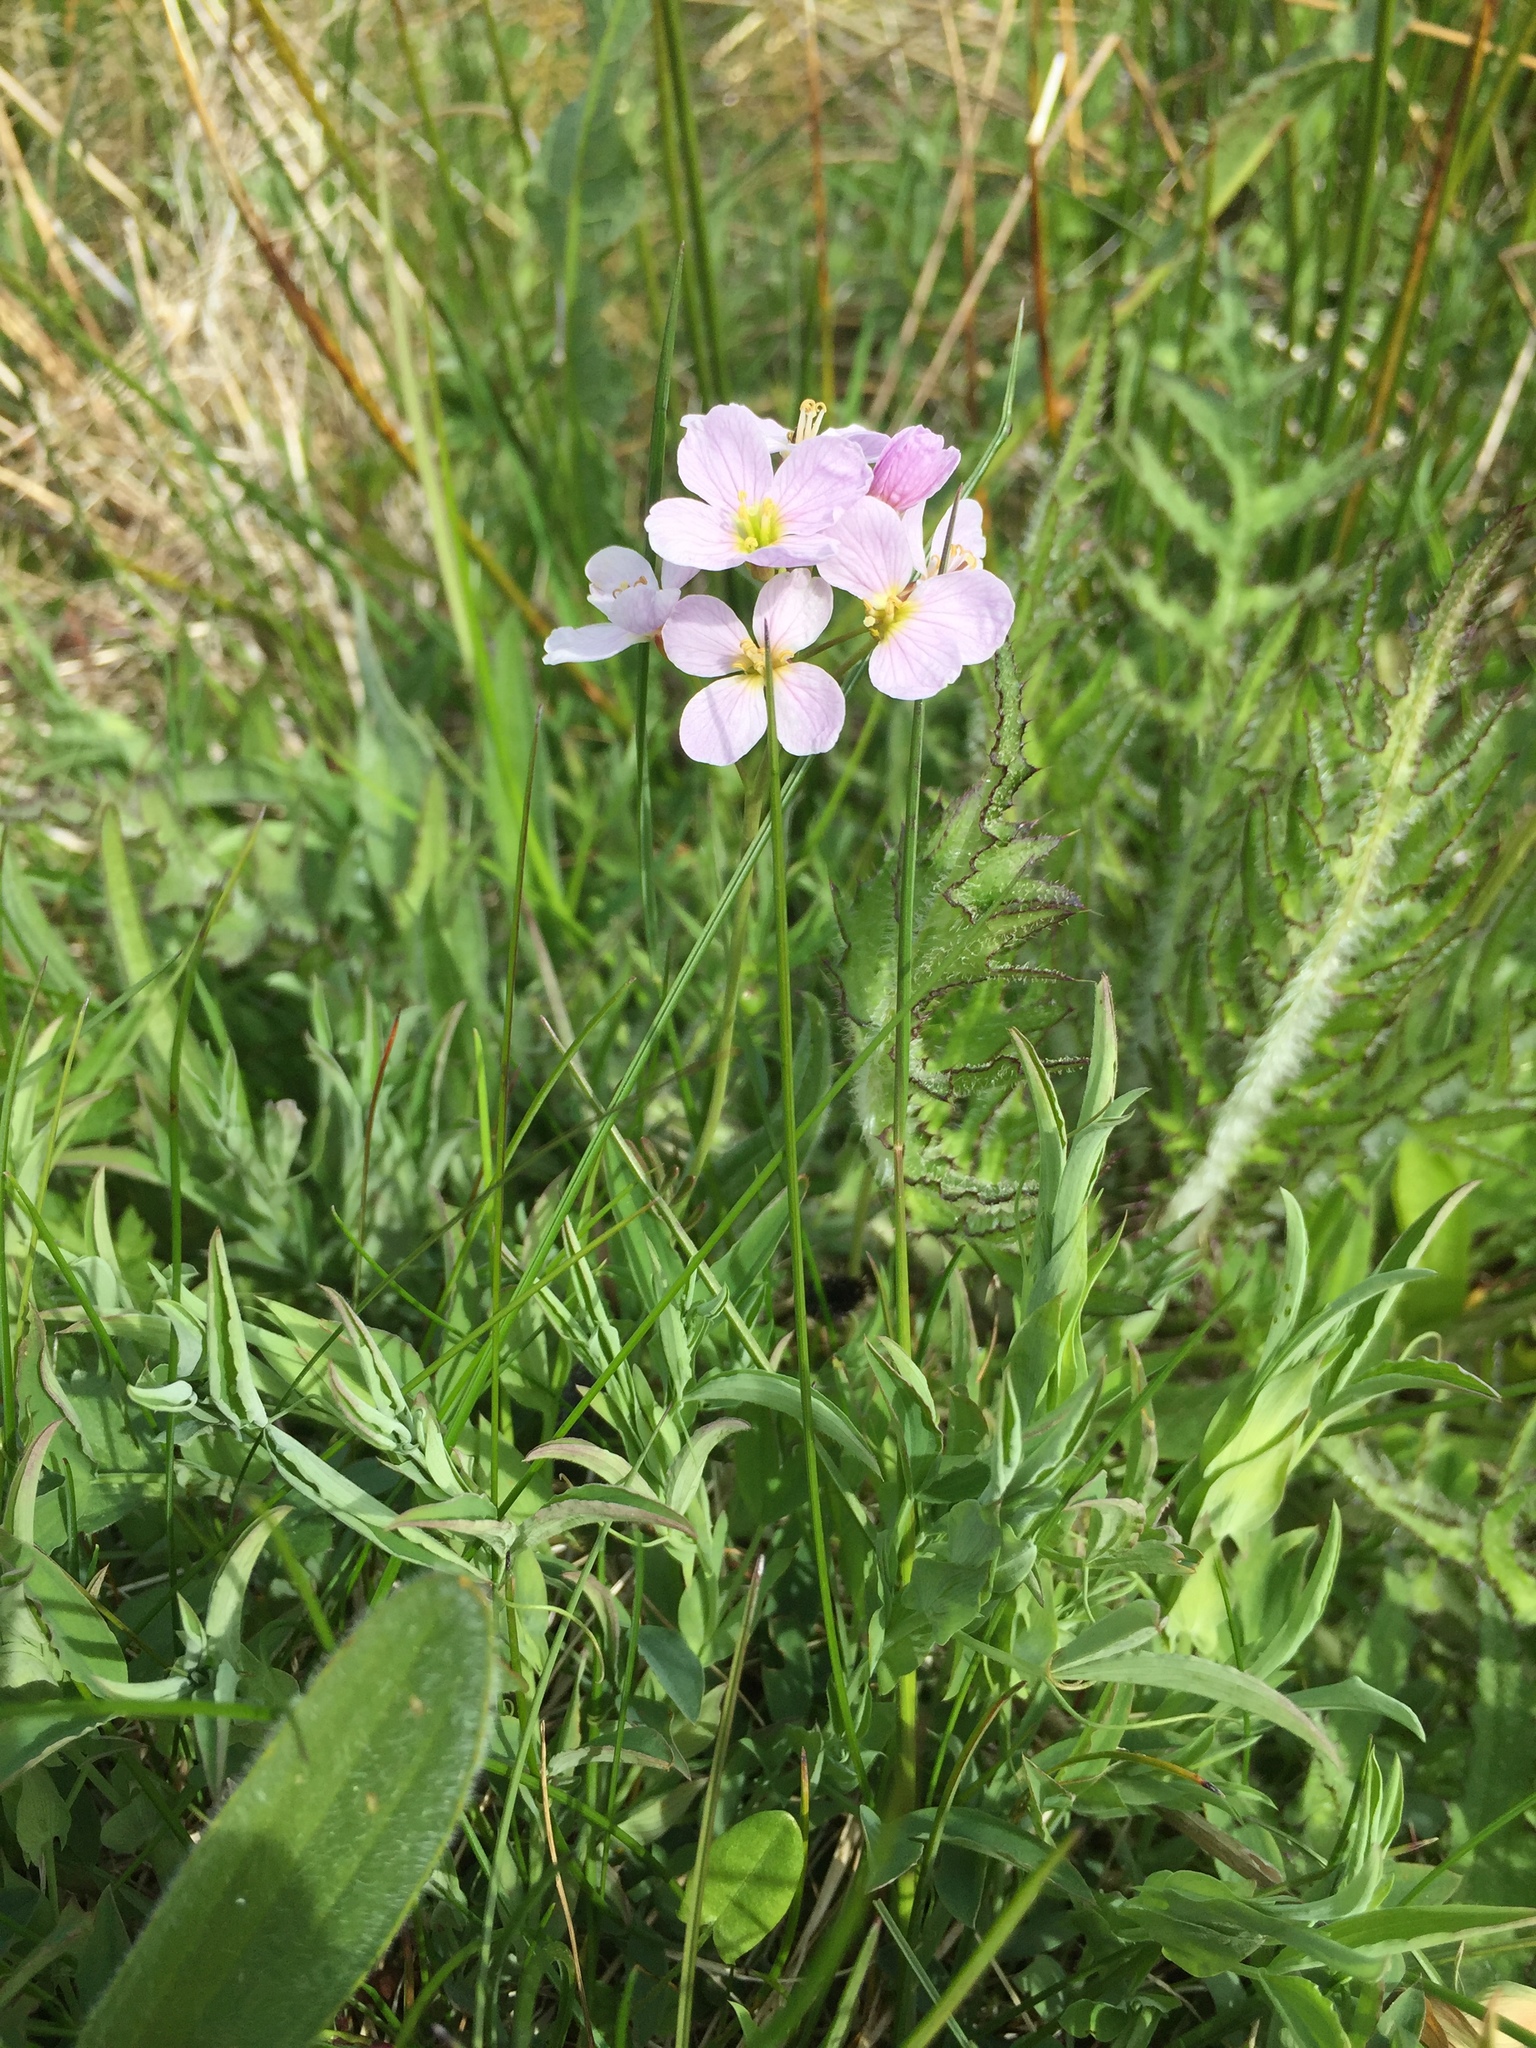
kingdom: Plantae
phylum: Tracheophyta
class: Magnoliopsida
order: Brassicales
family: Brassicaceae
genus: Cardamine
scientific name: Cardamine pratensis
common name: Cuckoo flower
